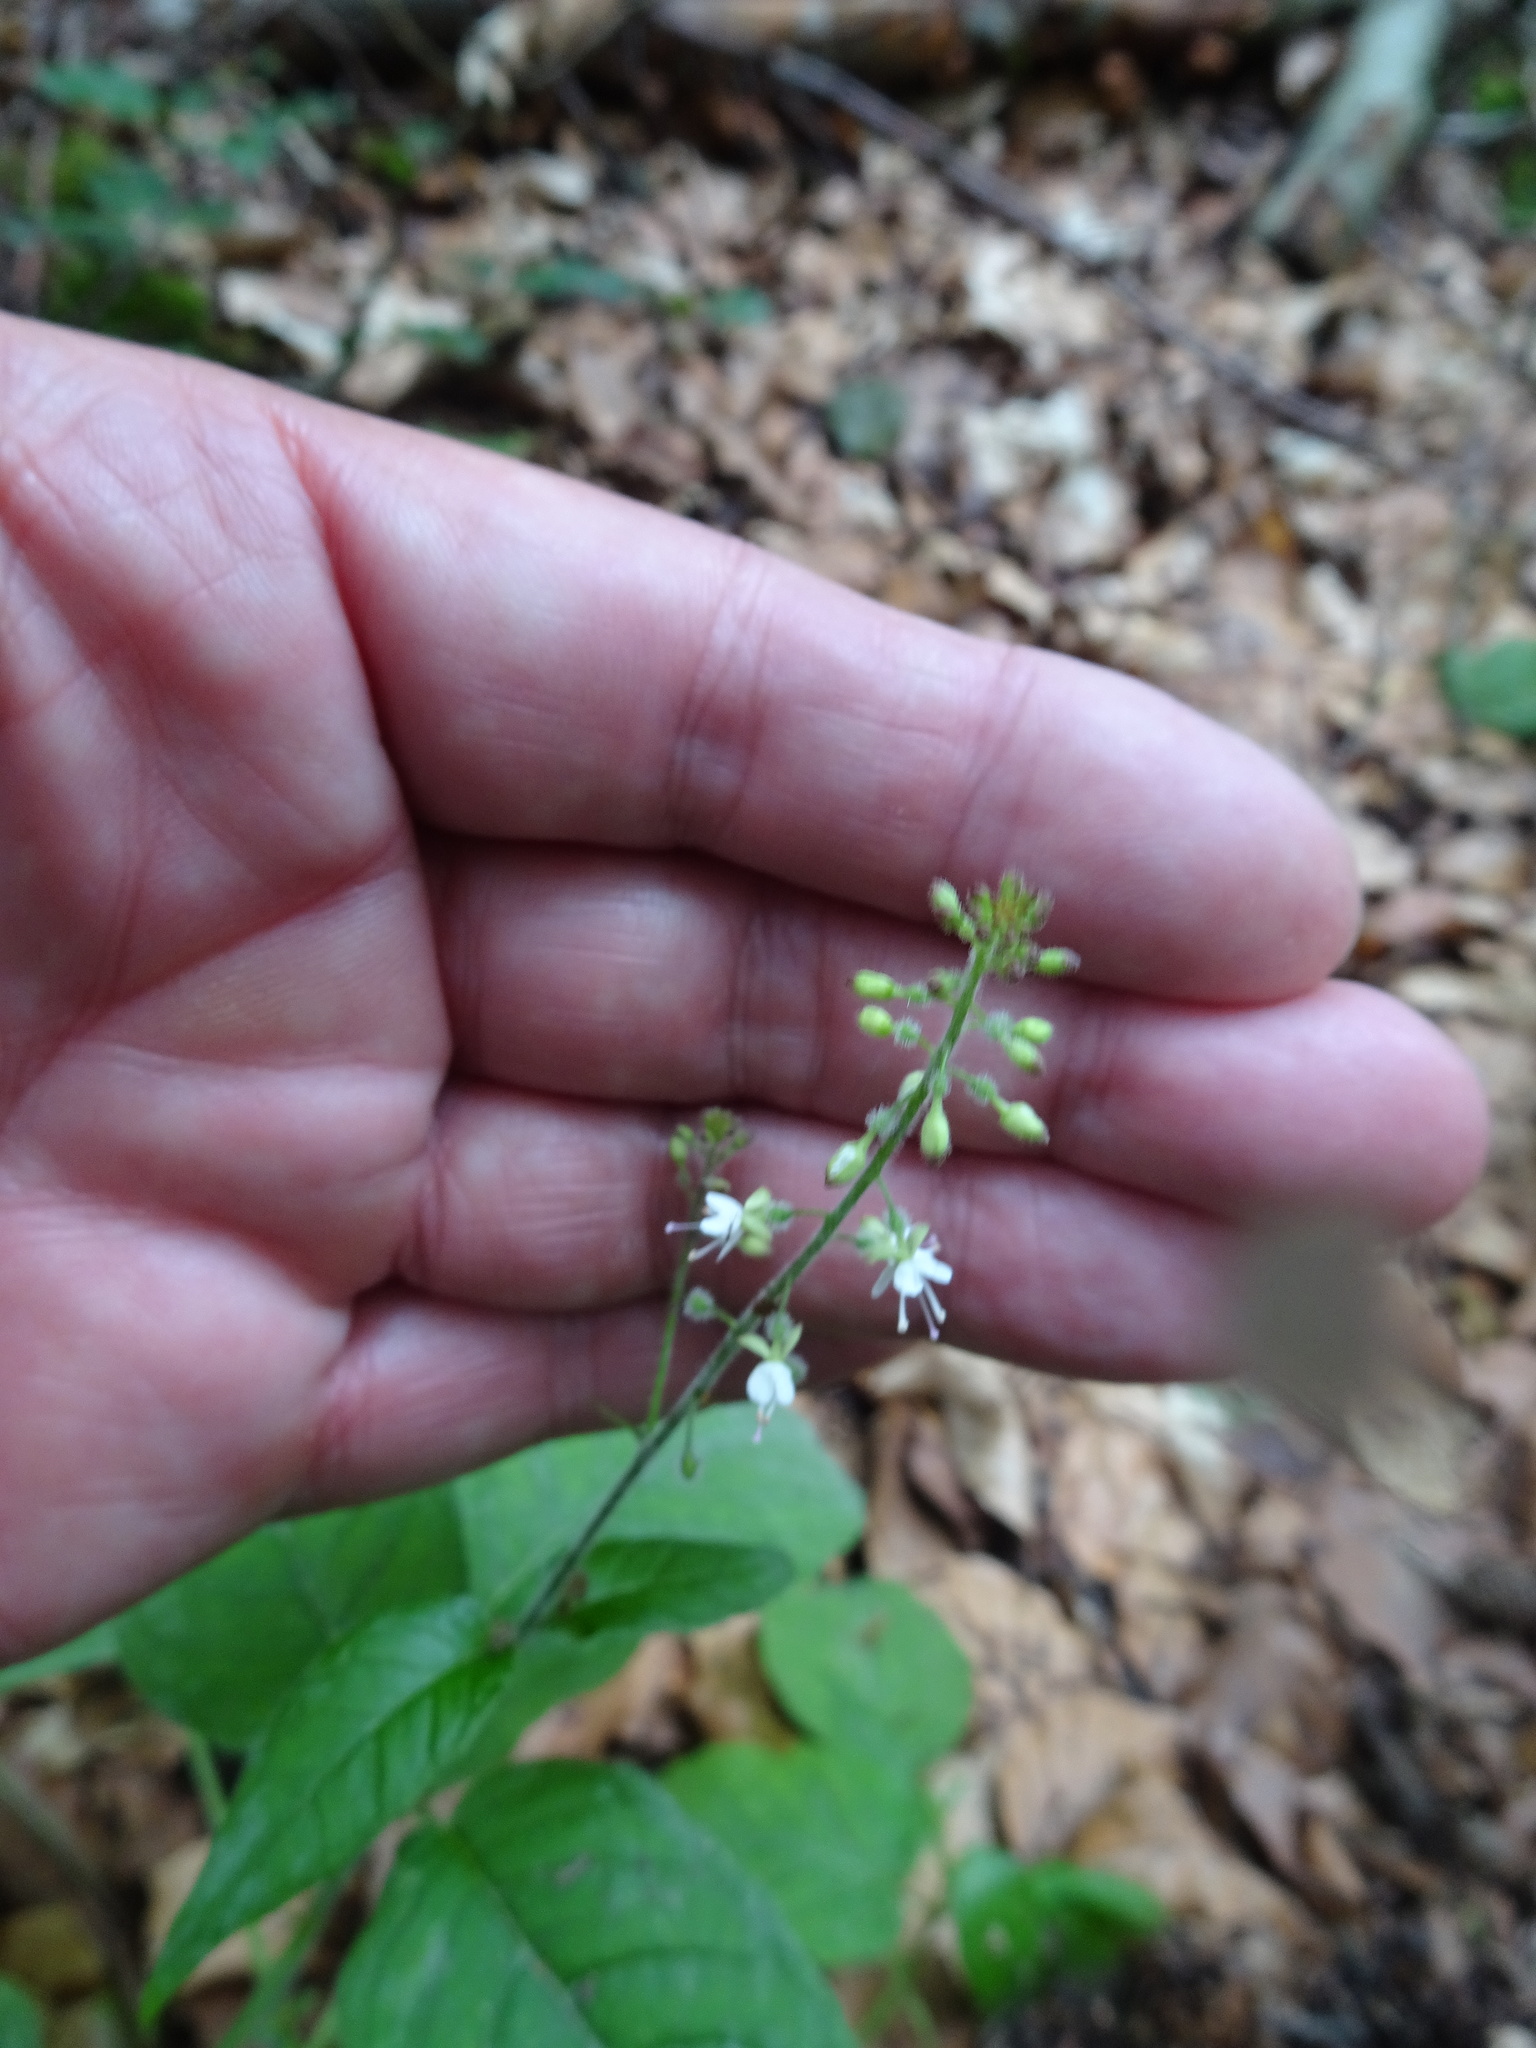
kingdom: Plantae
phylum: Tracheophyta
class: Magnoliopsida
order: Myrtales
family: Onagraceae
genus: Circaea
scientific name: Circaea lutetiana
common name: Enchanter's-nightshade
